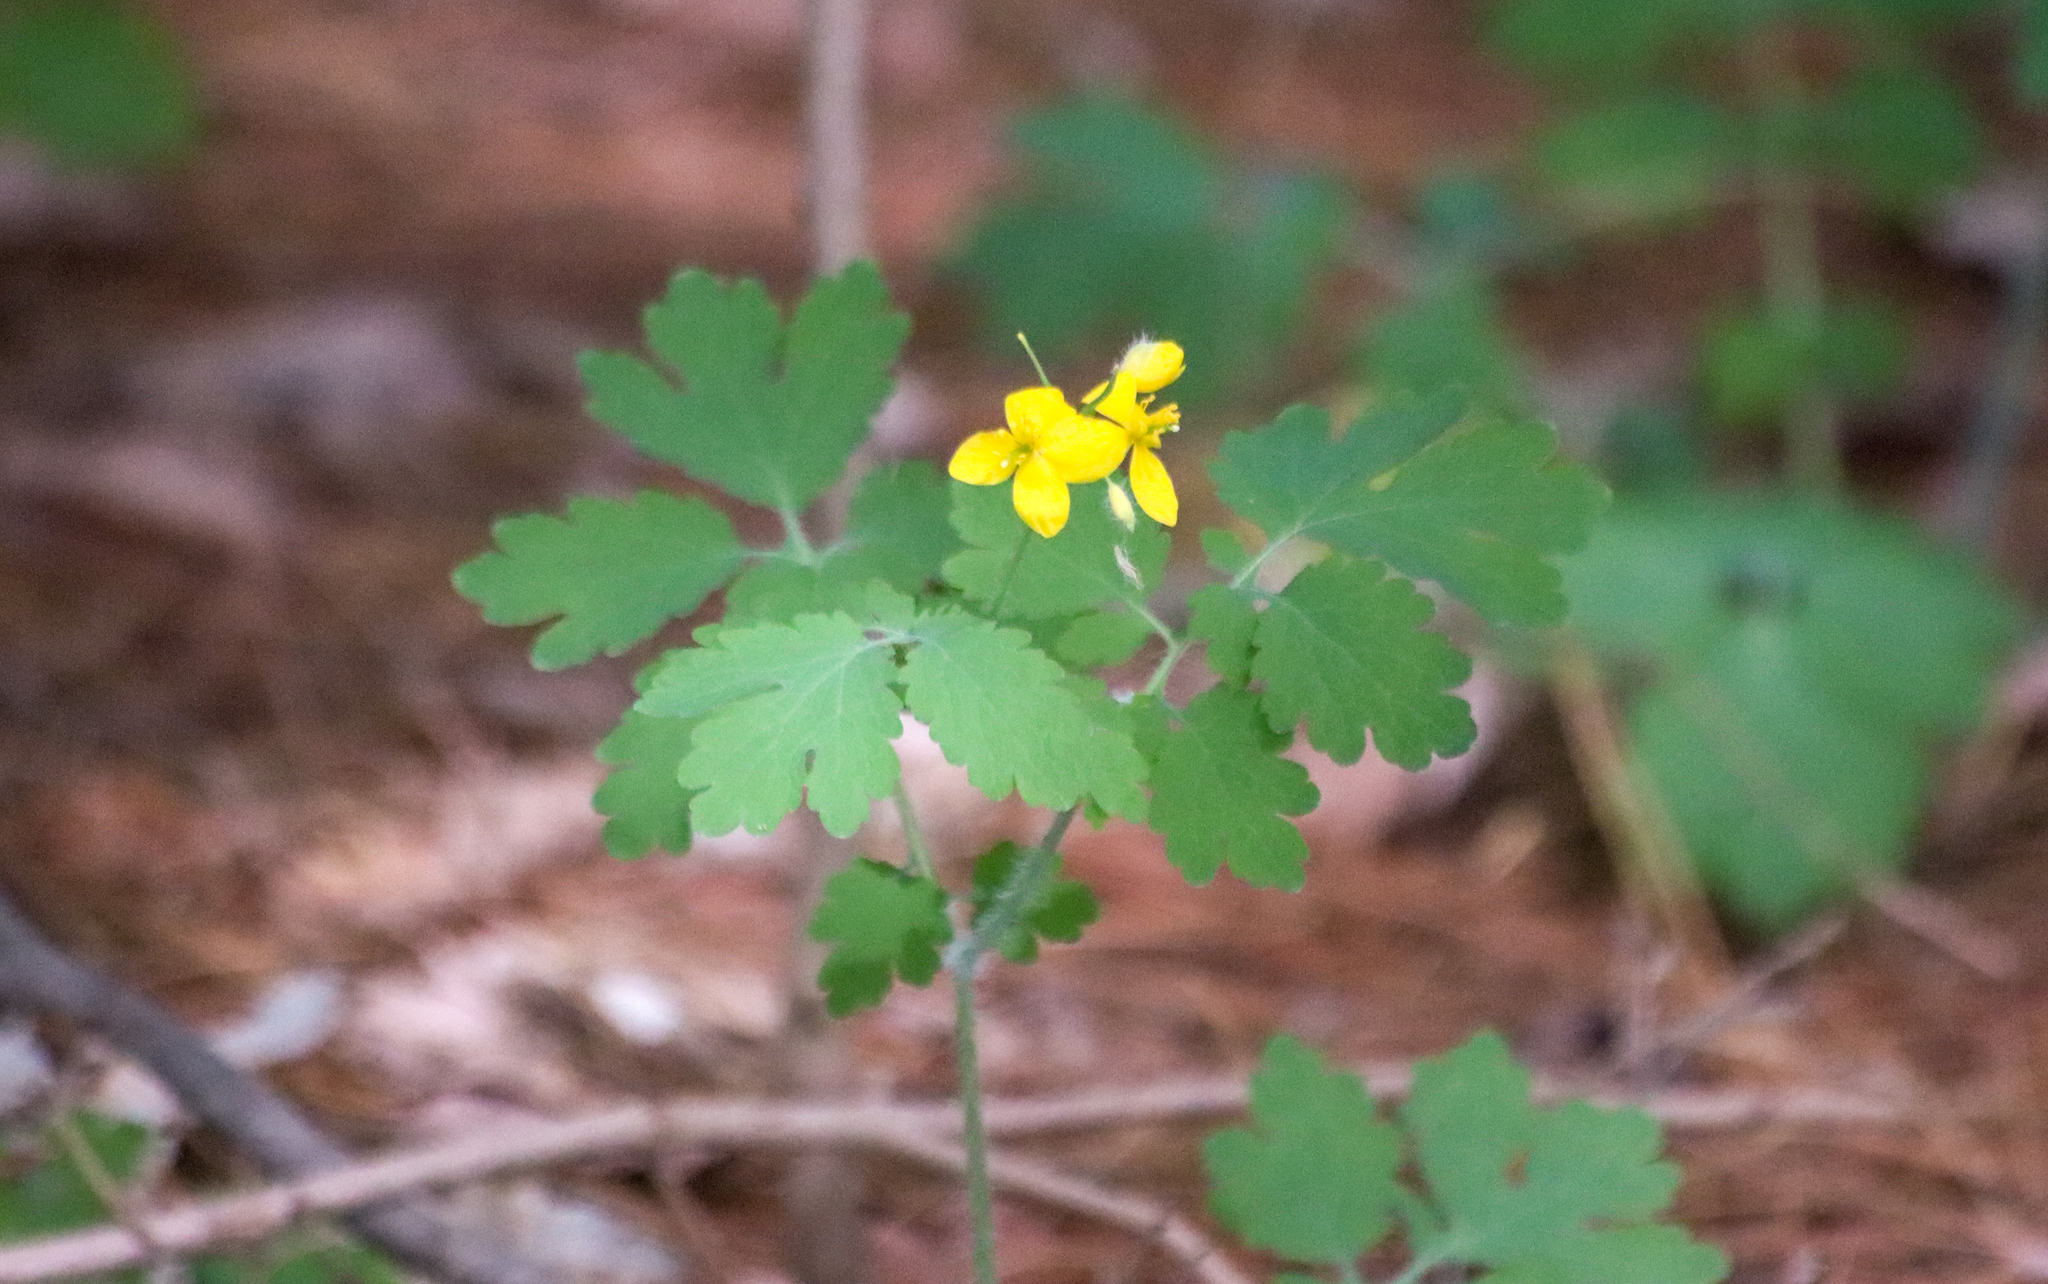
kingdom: Plantae
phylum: Tracheophyta
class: Magnoliopsida
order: Ranunculales
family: Papaveraceae
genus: Chelidonium
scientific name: Chelidonium majus
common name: Greater celandine
